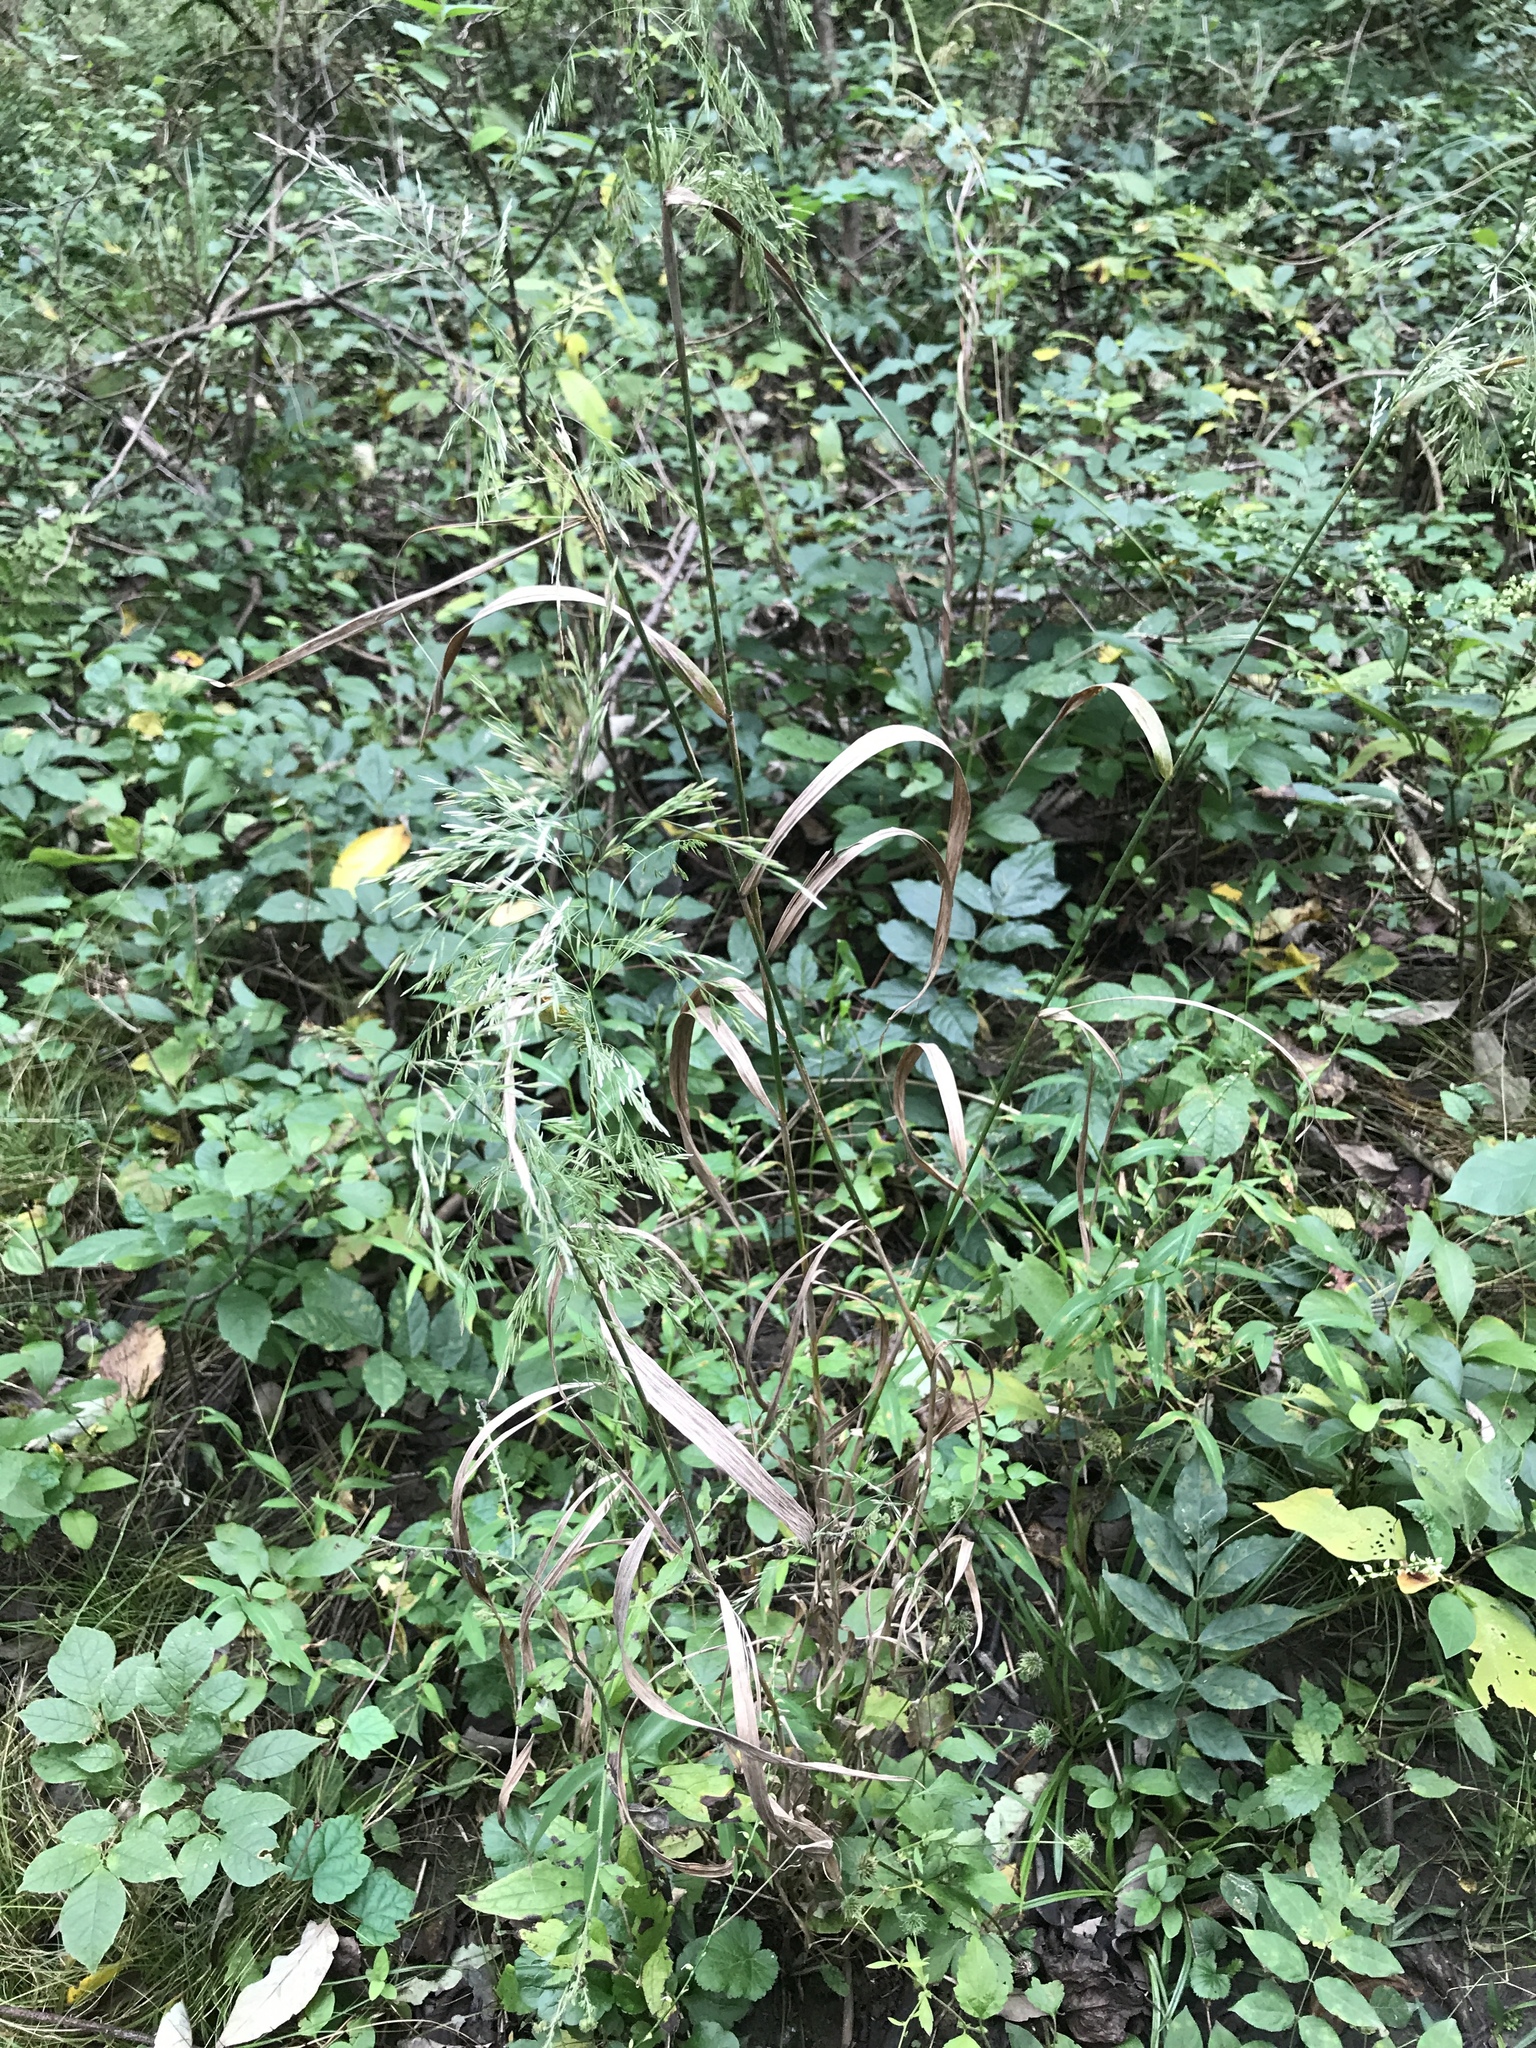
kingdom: Plantae
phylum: Tracheophyta
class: Liliopsida
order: Poales
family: Poaceae
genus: Cinna
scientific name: Cinna arundinacea
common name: Stout woodreed
